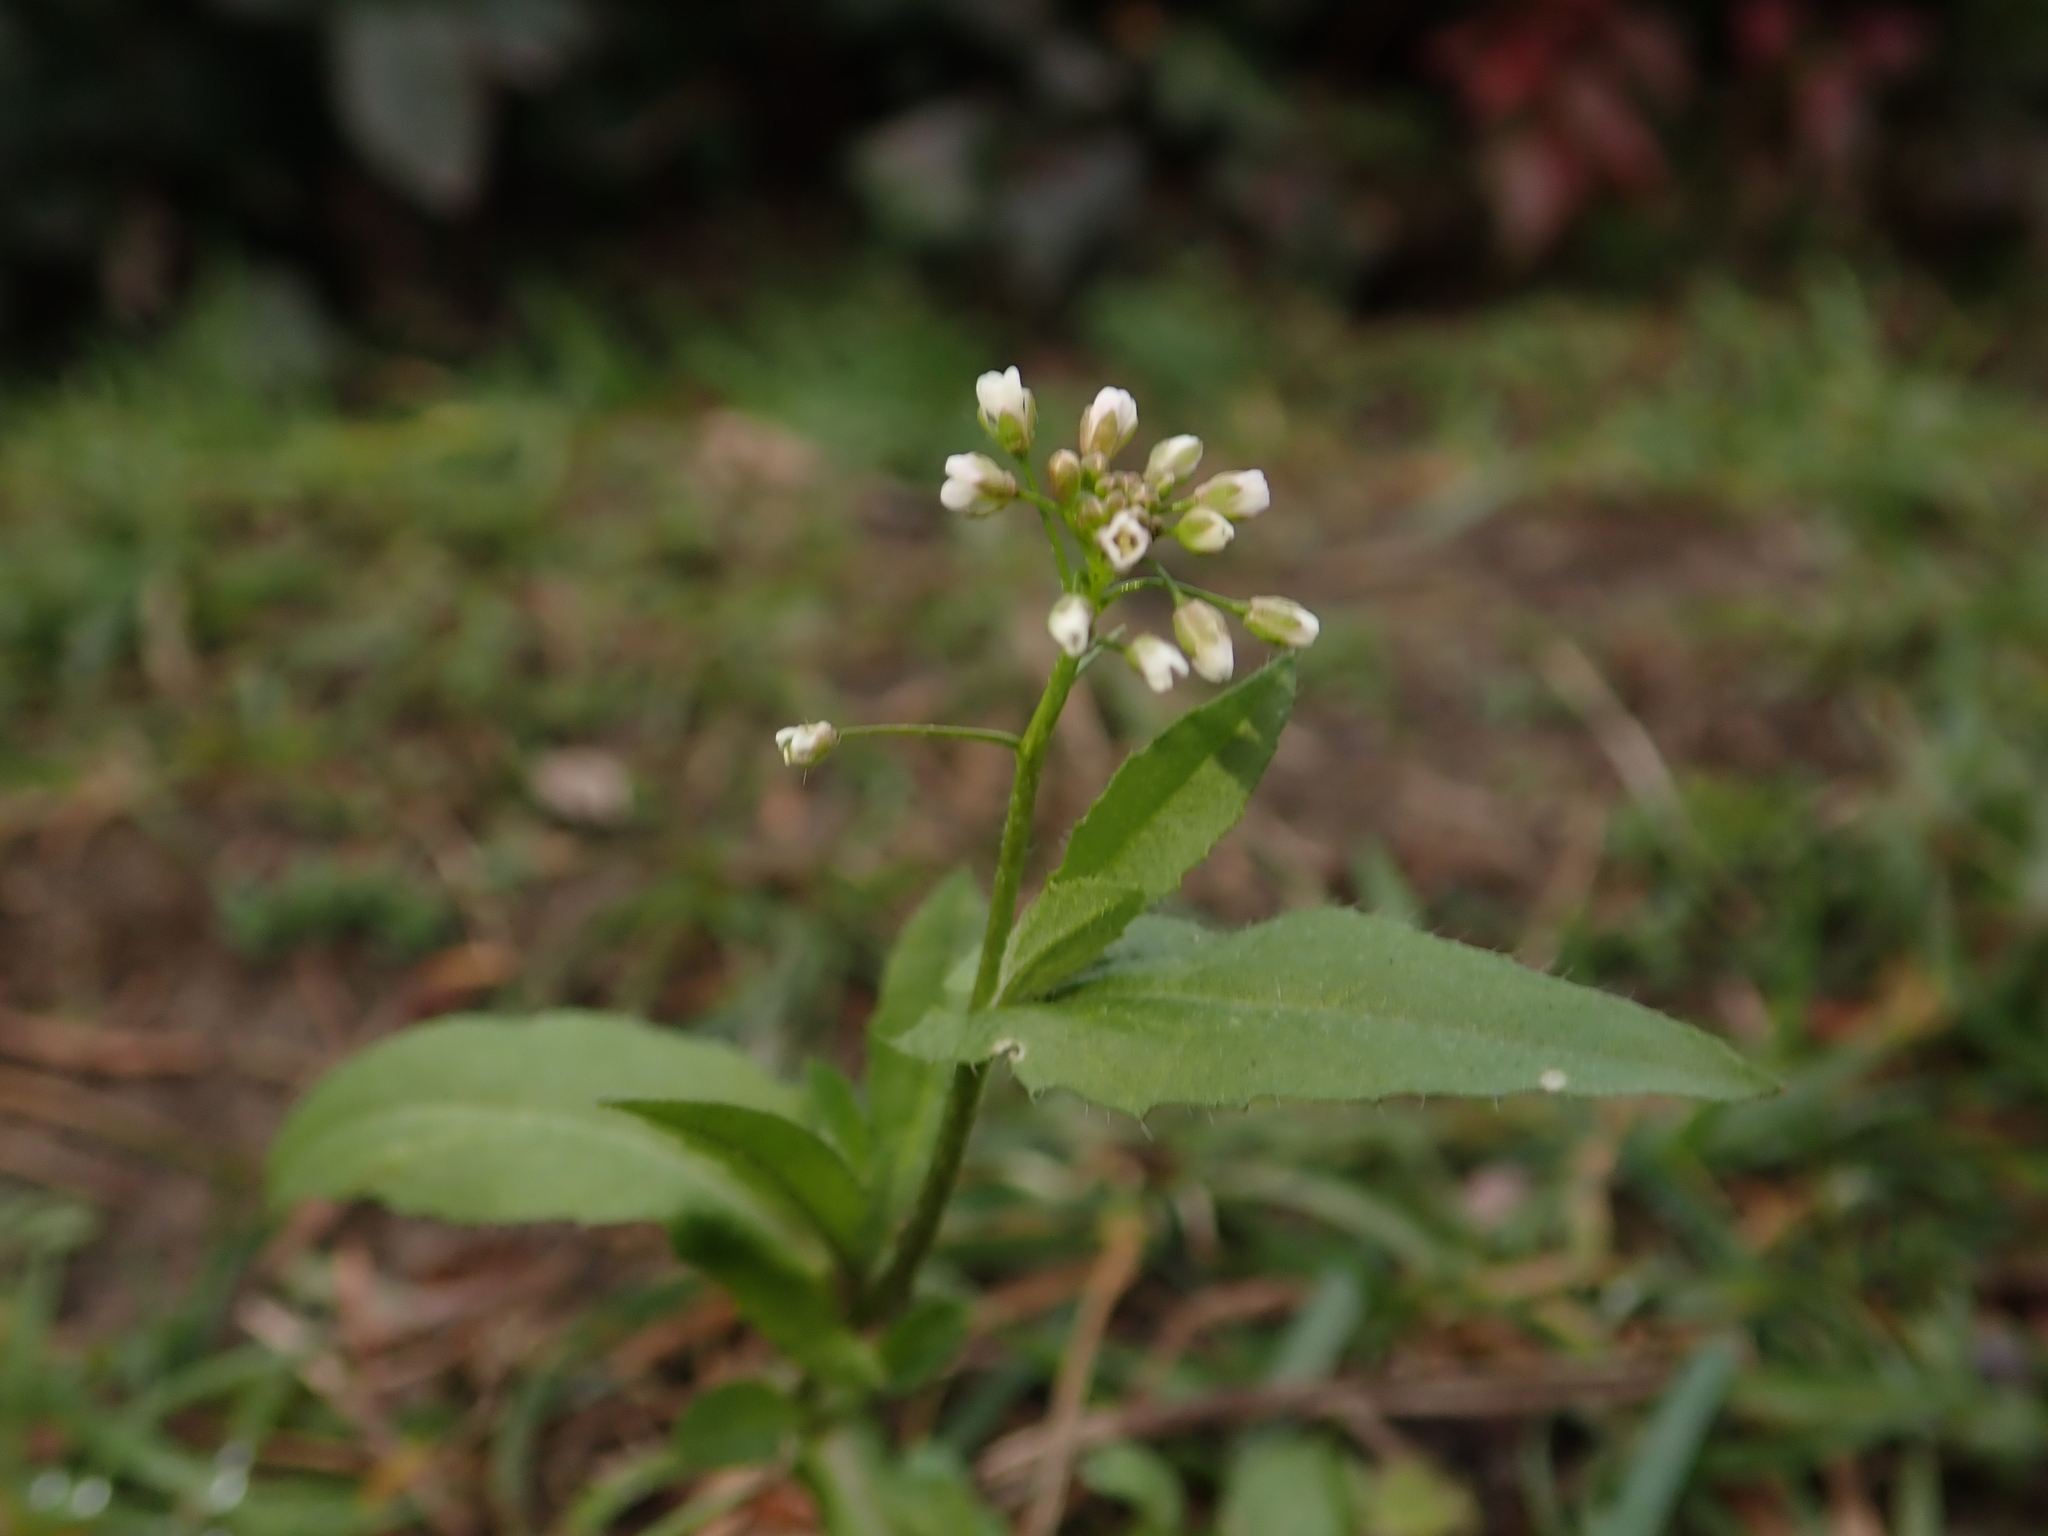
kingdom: Plantae
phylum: Tracheophyta
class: Magnoliopsida
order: Brassicales
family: Brassicaceae
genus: Capsella
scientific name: Capsella bursa-pastoris
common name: Shepherd's purse
